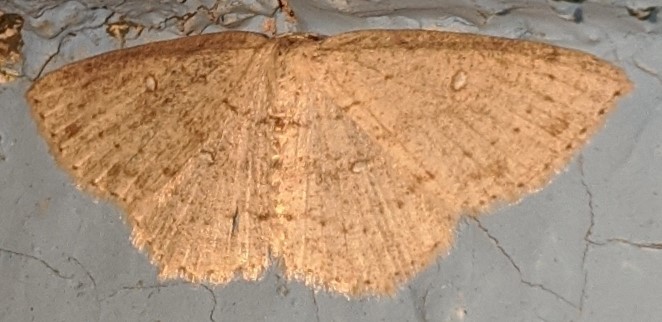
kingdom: Animalia
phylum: Arthropoda
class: Insecta
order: Lepidoptera
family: Geometridae
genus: Cyclophora
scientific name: Cyclophora pendulinaria
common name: Sweet fern geometer
